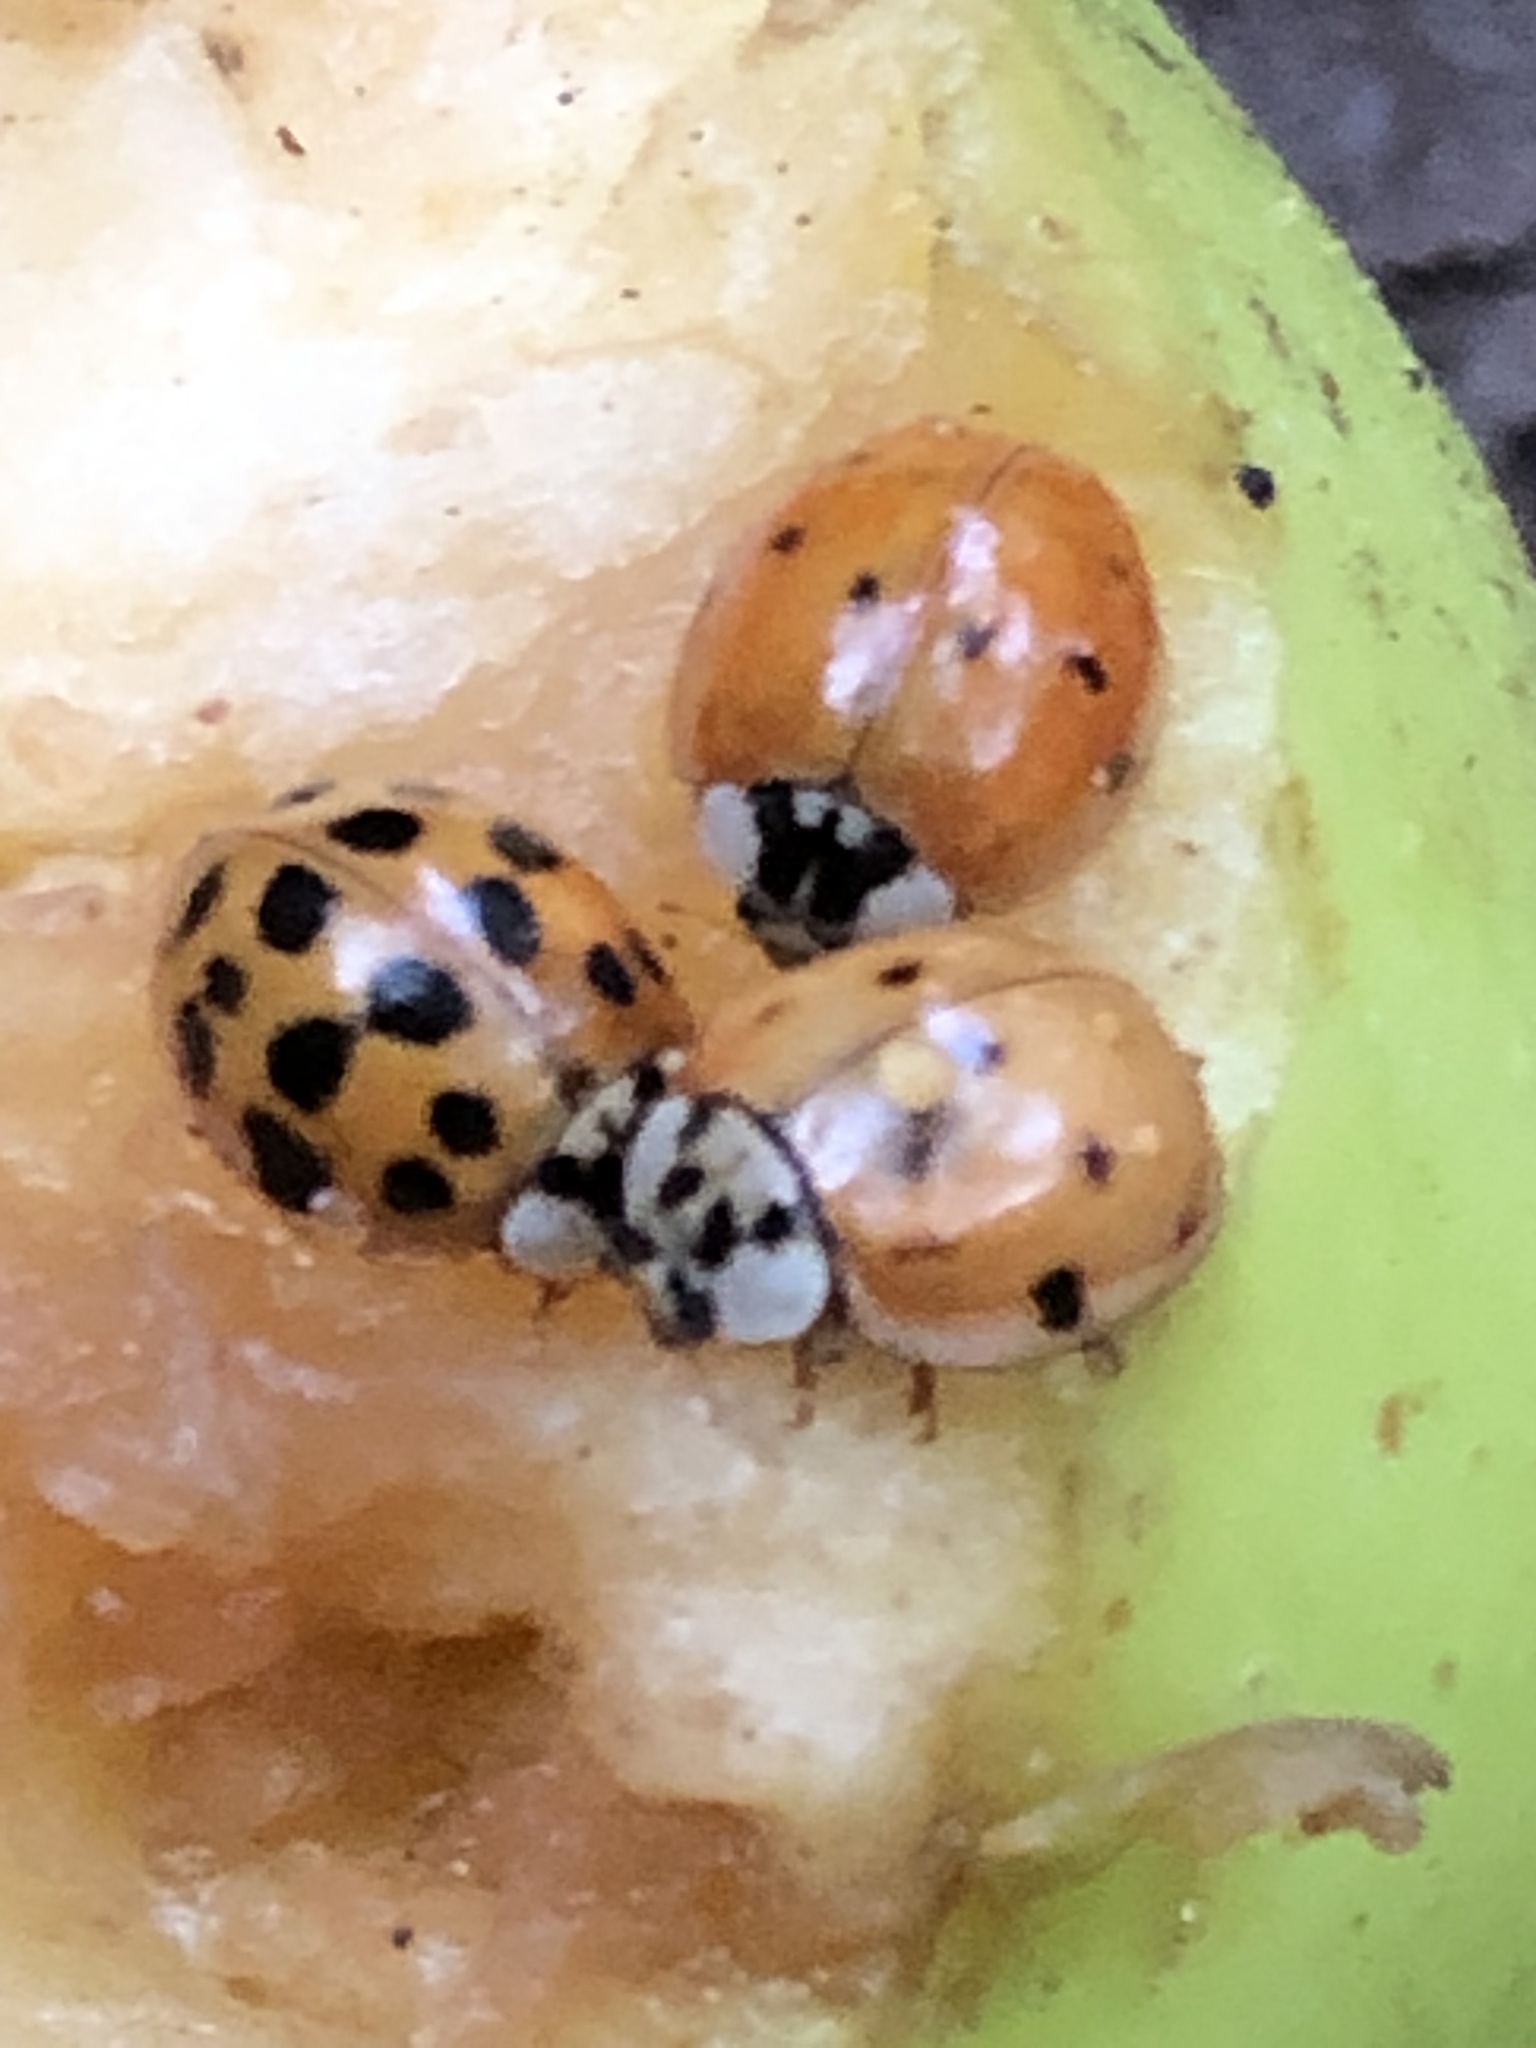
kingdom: Animalia
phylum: Arthropoda
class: Insecta
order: Coleoptera
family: Coccinellidae
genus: Harmonia
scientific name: Harmonia axyridis
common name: Harlequin ladybird
